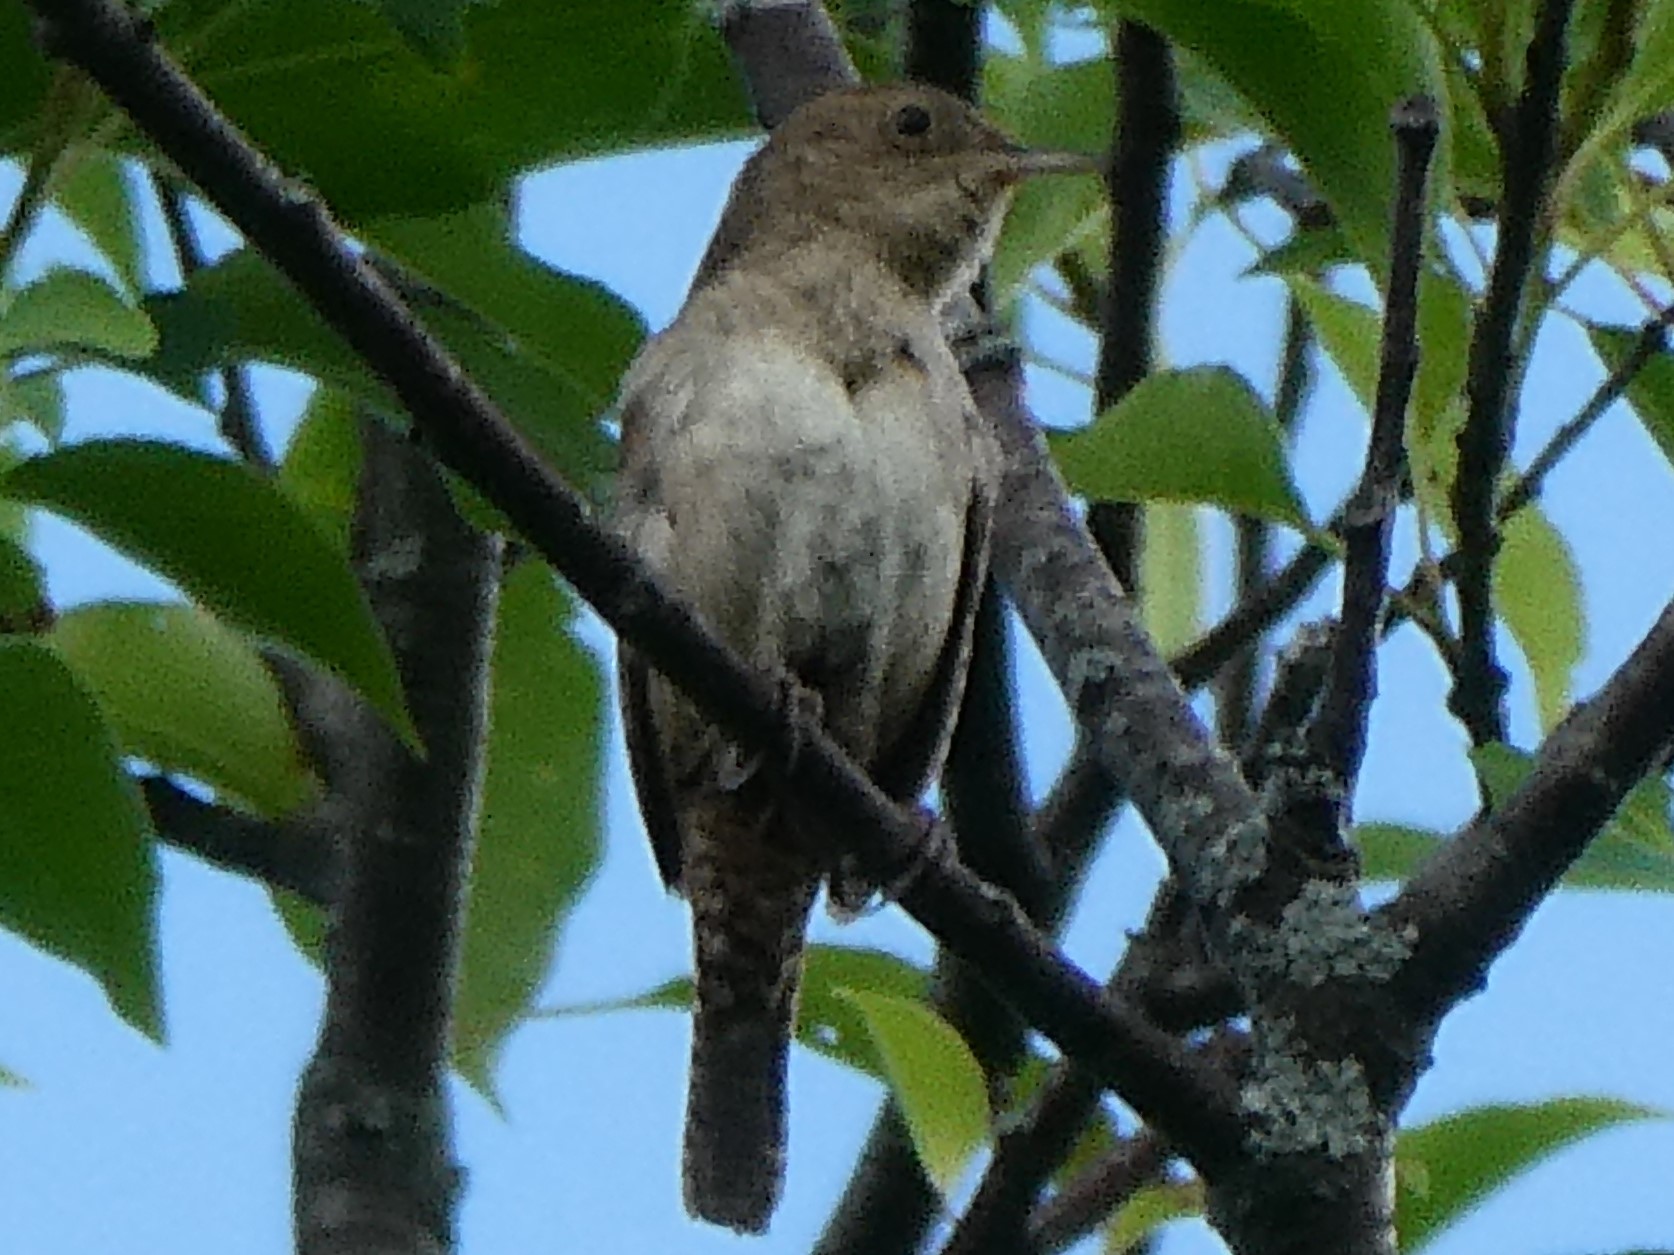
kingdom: Animalia
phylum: Chordata
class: Aves
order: Passeriformes
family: Troglodytidae
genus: Troglodytes
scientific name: Troglodytes aedon
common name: House wren
